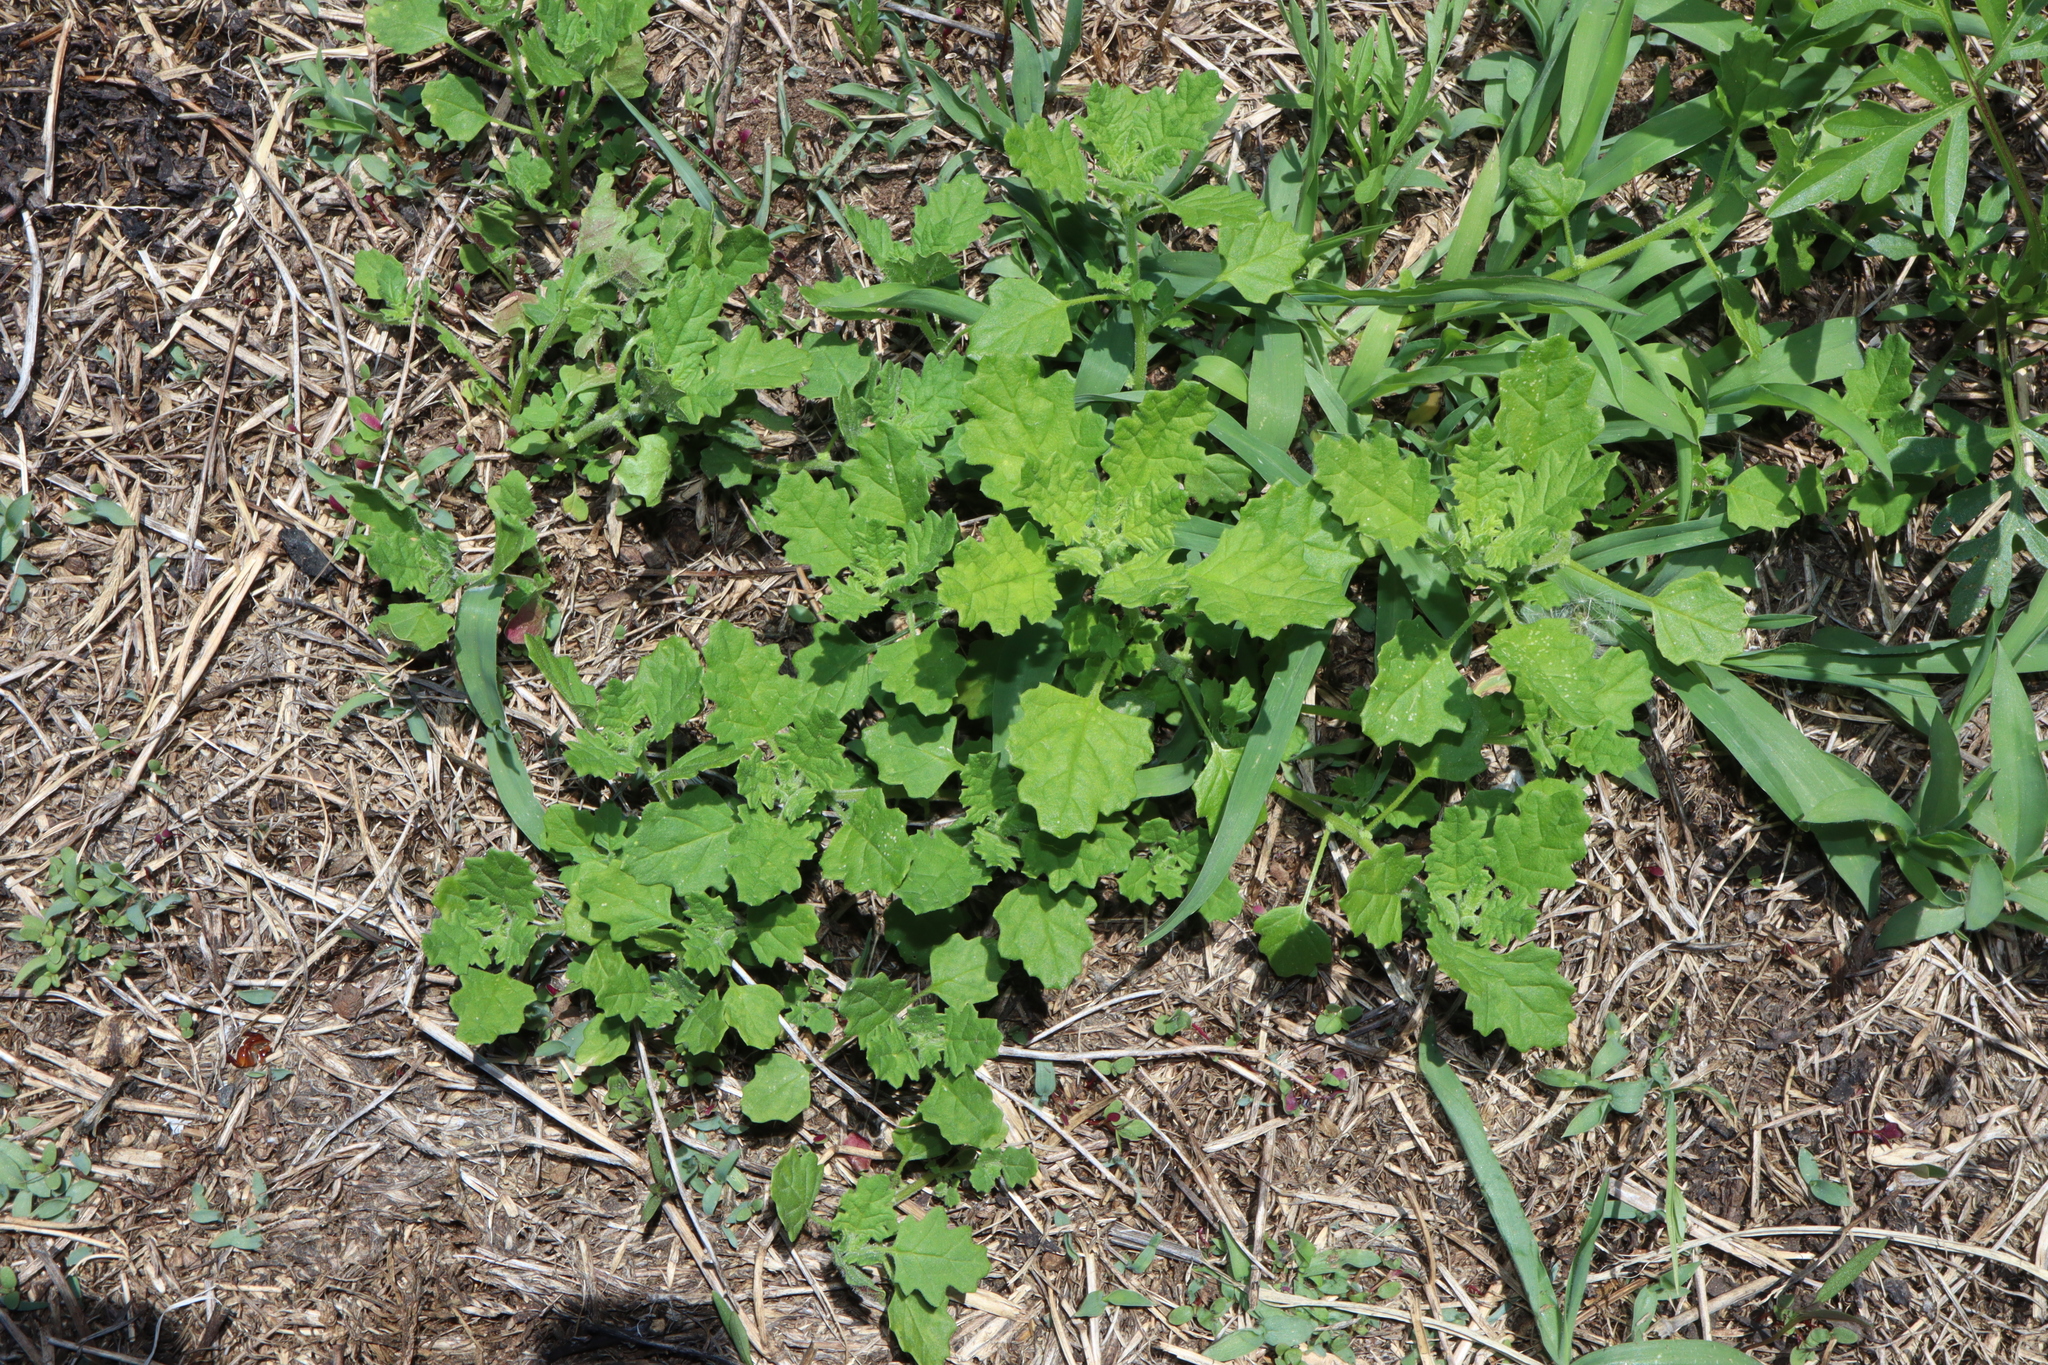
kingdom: Plantae
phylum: Tracheophyta
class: Magnoliopsida
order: Malvales
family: Malvaceae
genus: Modiola
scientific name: Modiola caroliniana
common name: Carolina bristlemallow
